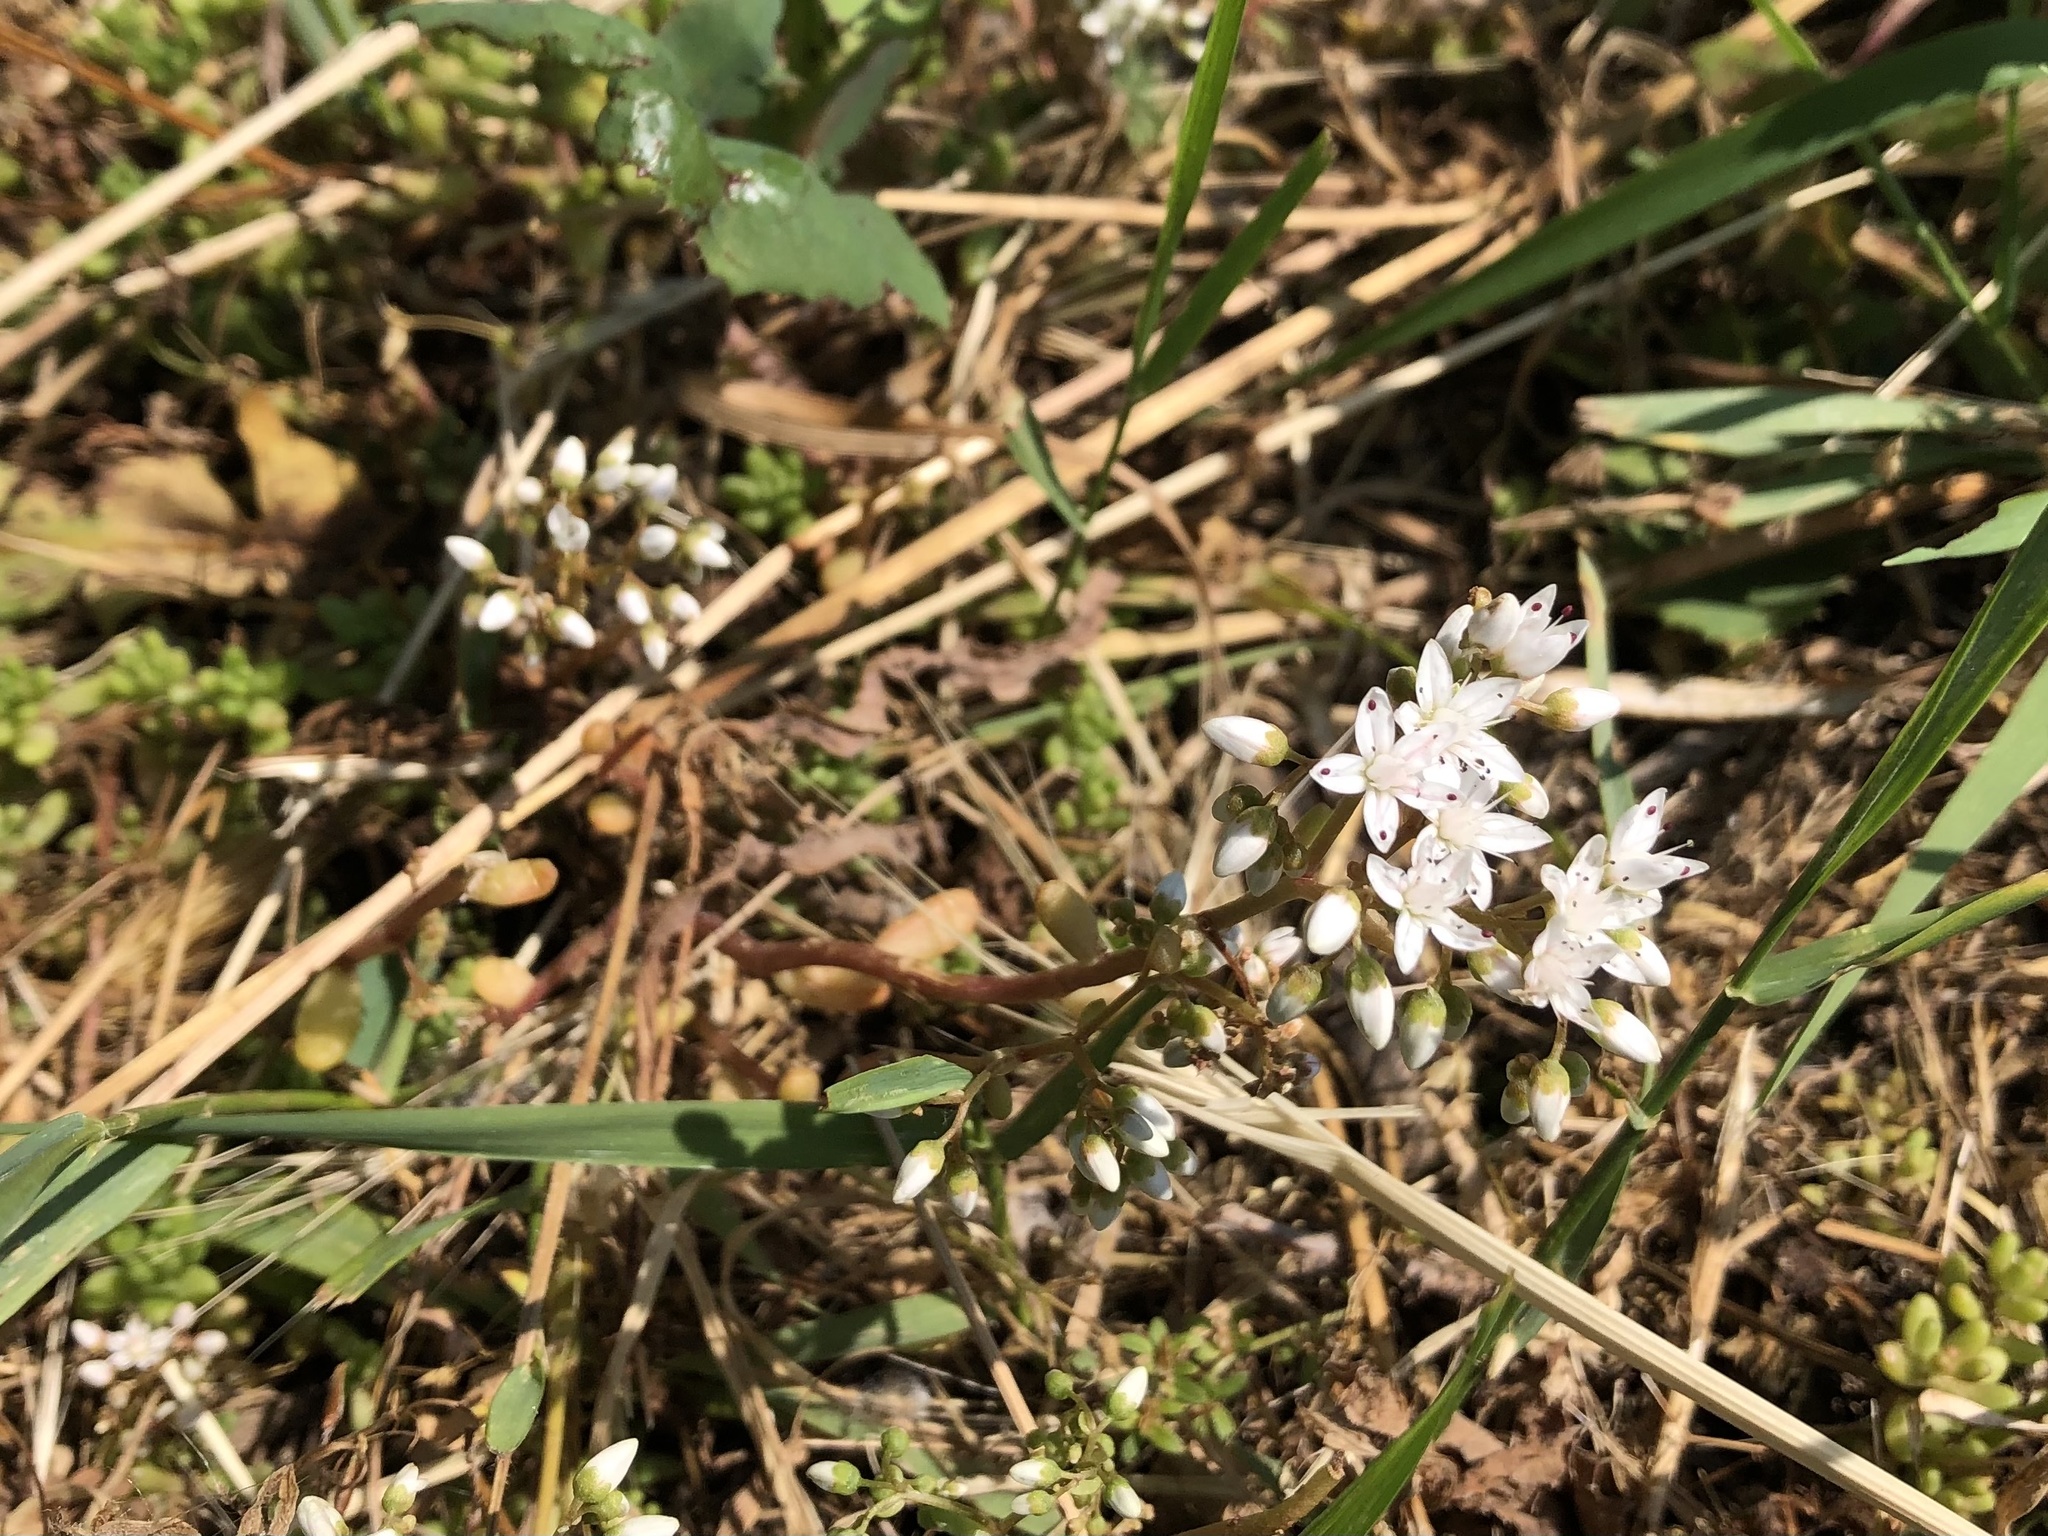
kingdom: Plantae
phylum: Tracheophyta
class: Magnoliopsida
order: Saxifragales
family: Crassulaceae
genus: Sedum
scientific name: Sedum album
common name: White stonecrop
